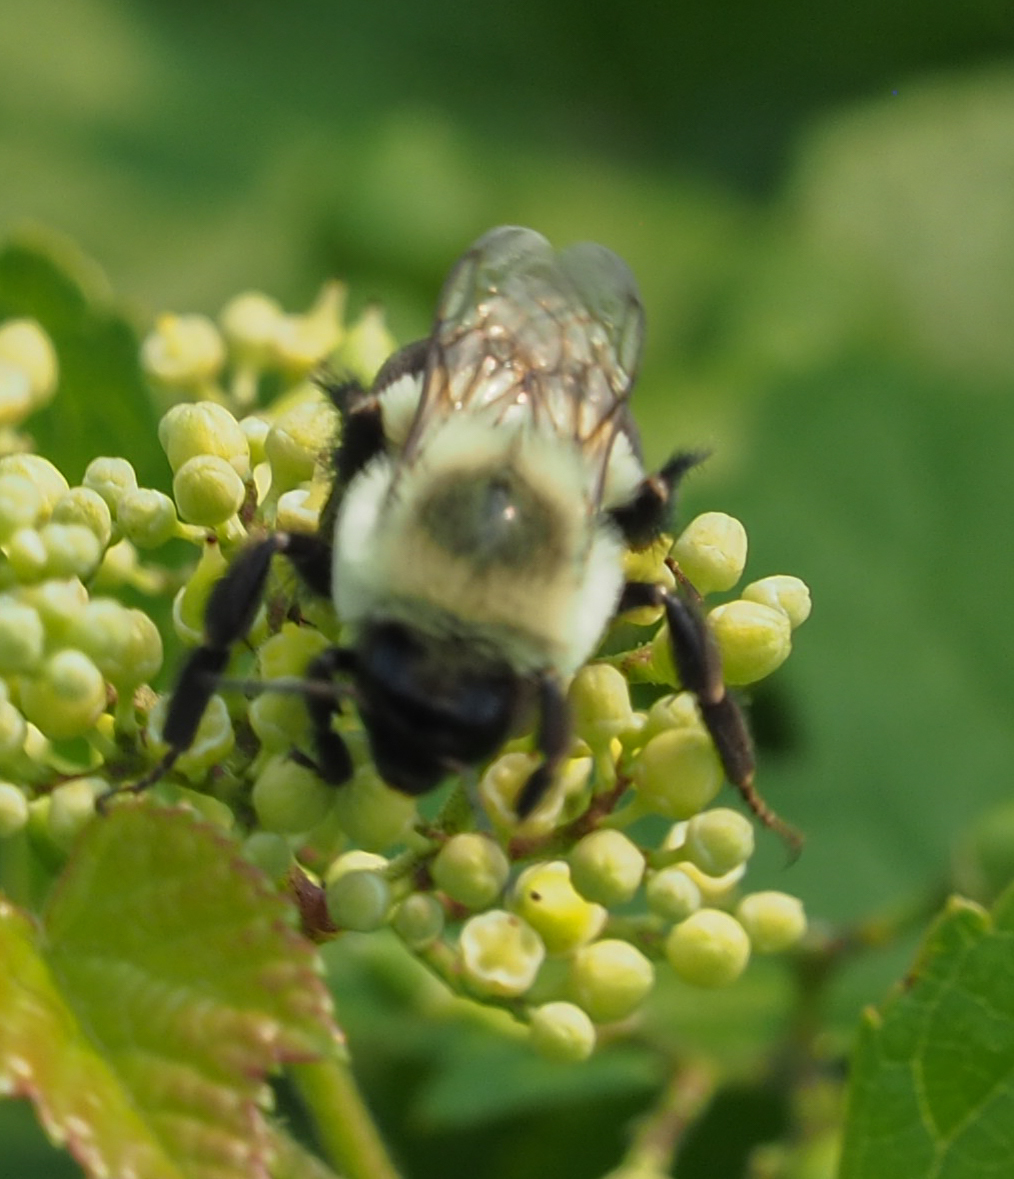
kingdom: Animalia
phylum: Arthropoda
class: Insecta
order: Hymenoptera
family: Apidae
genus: Bombus
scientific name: Bombus impatiens
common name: Common eastern bumble bee
